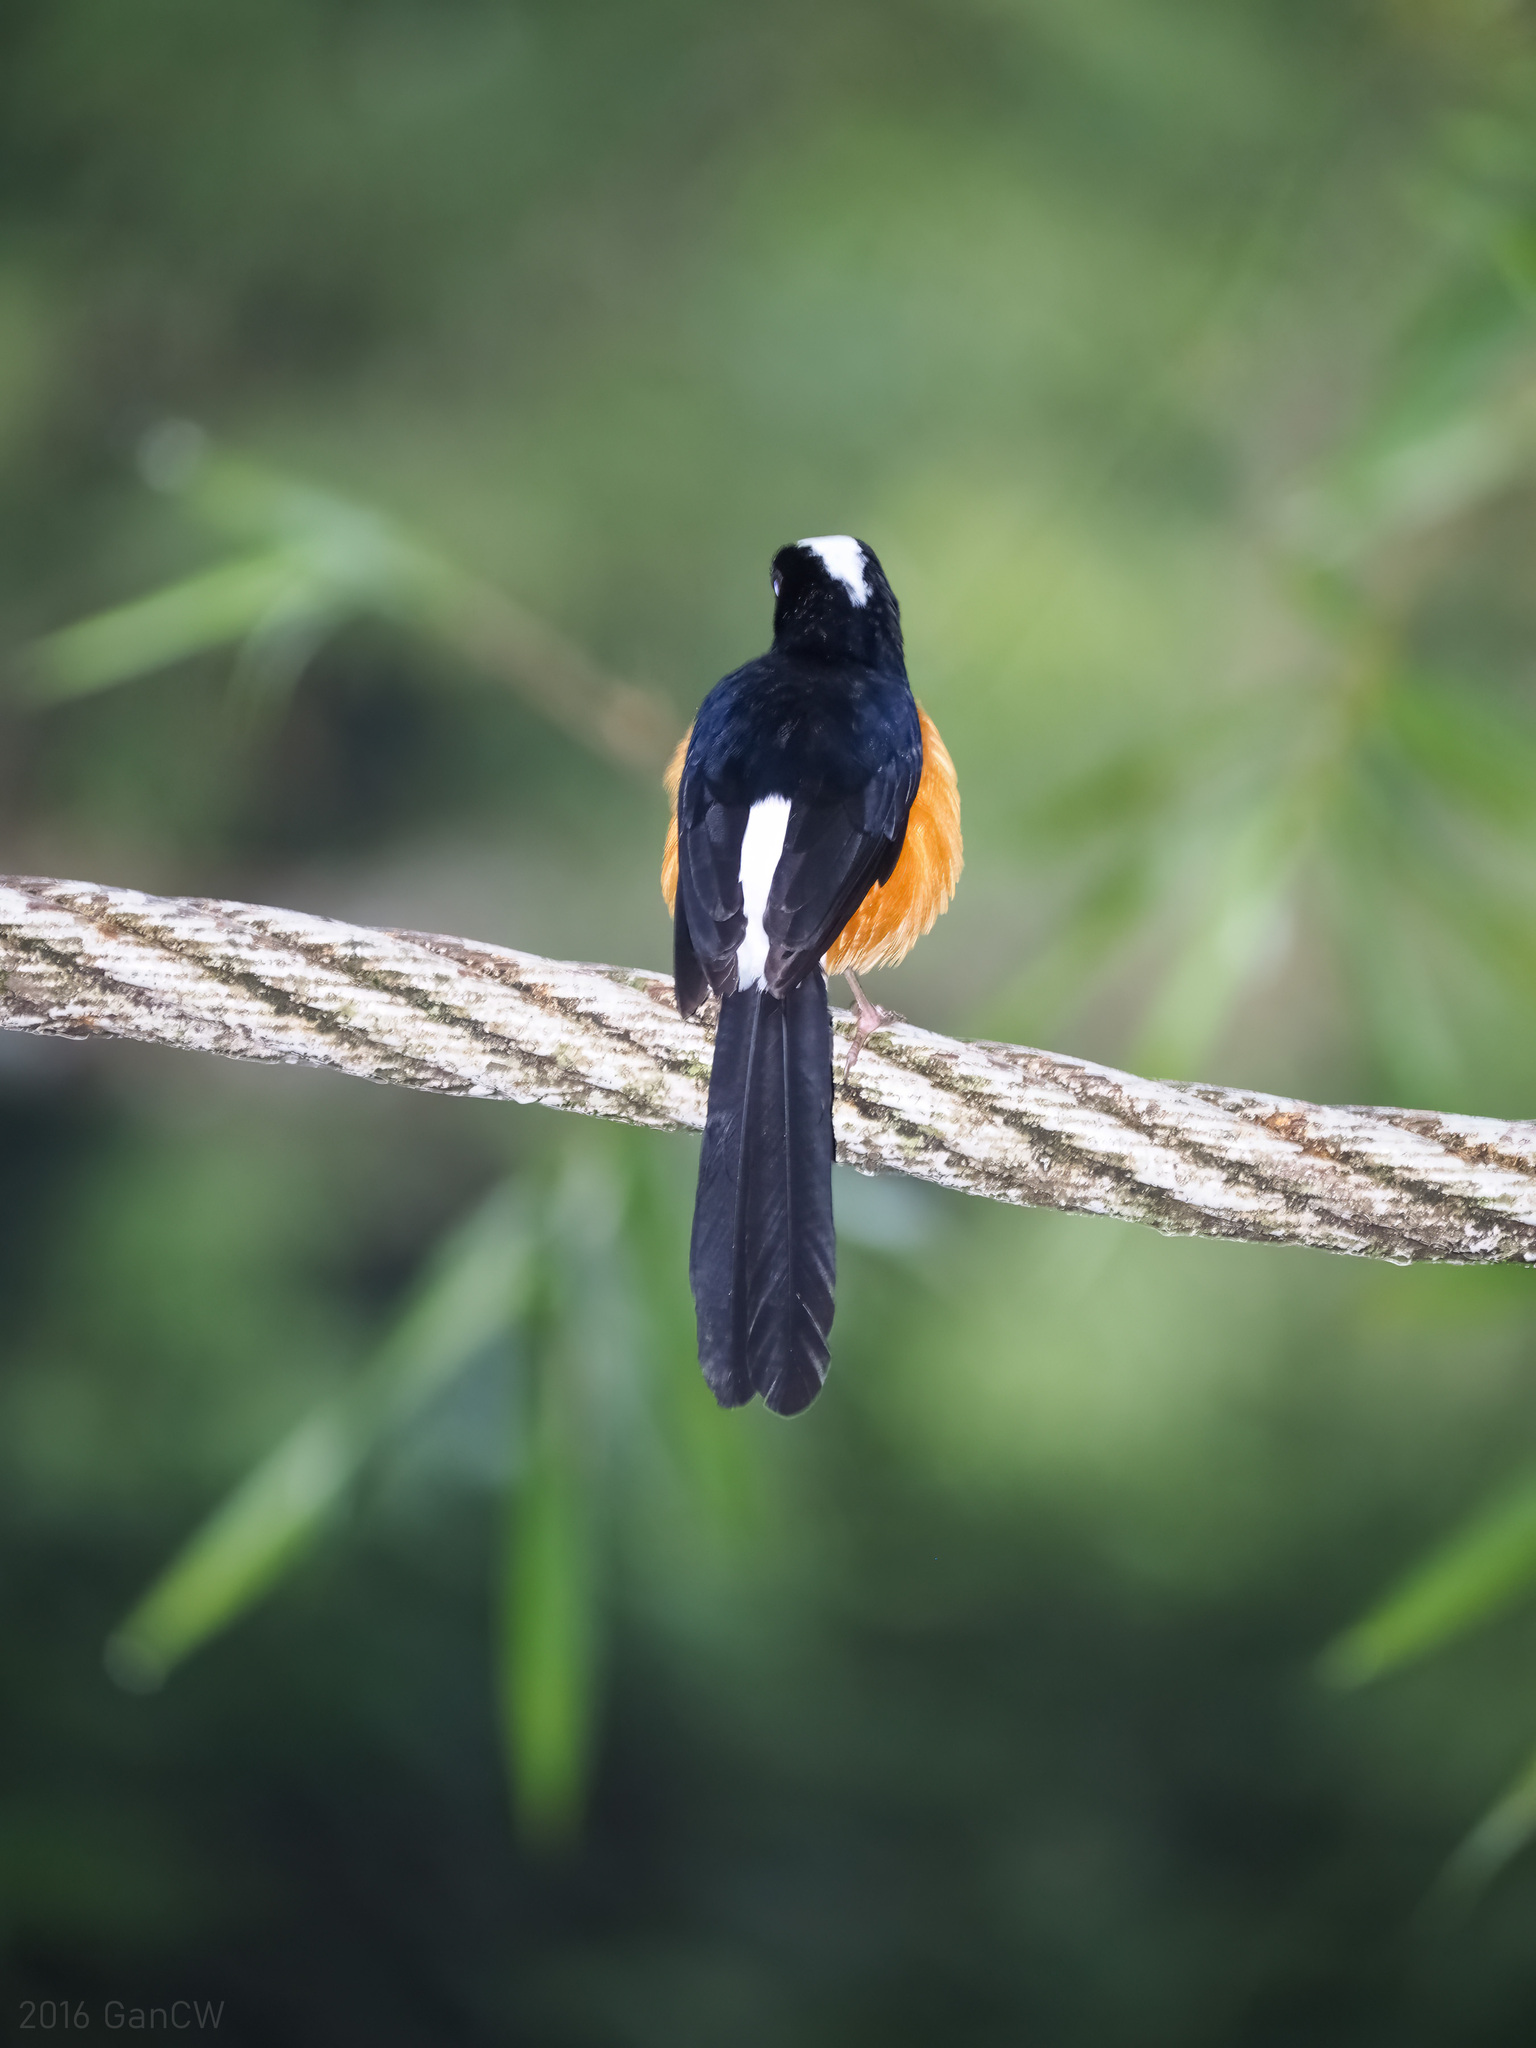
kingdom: Animalia
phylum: Chordata
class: Aves
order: Passeriformes
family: Muscicapidae
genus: Copsychus
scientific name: Copsychus stricklandii
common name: White-crowned shama
